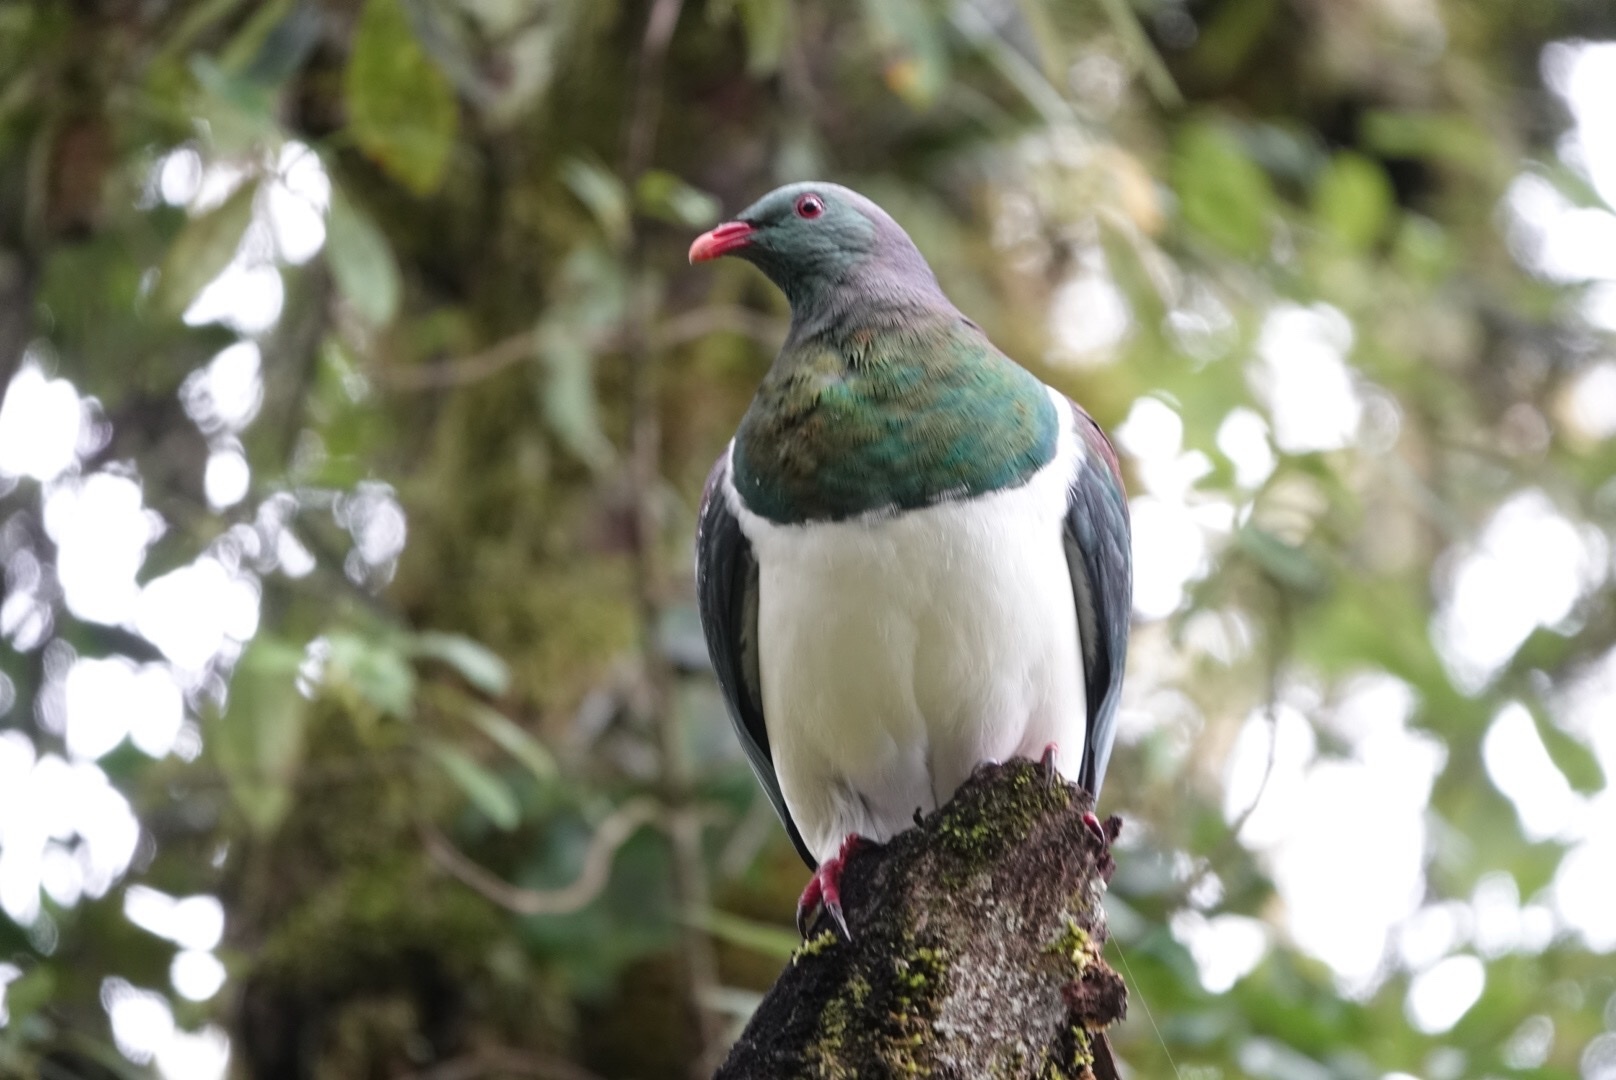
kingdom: Animalia
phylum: Chordata
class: Aves
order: Columbiformes
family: Columbidae
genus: Hemiphaga
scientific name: Hemiphaga novaeseelandiae
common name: New zealand pigeon
